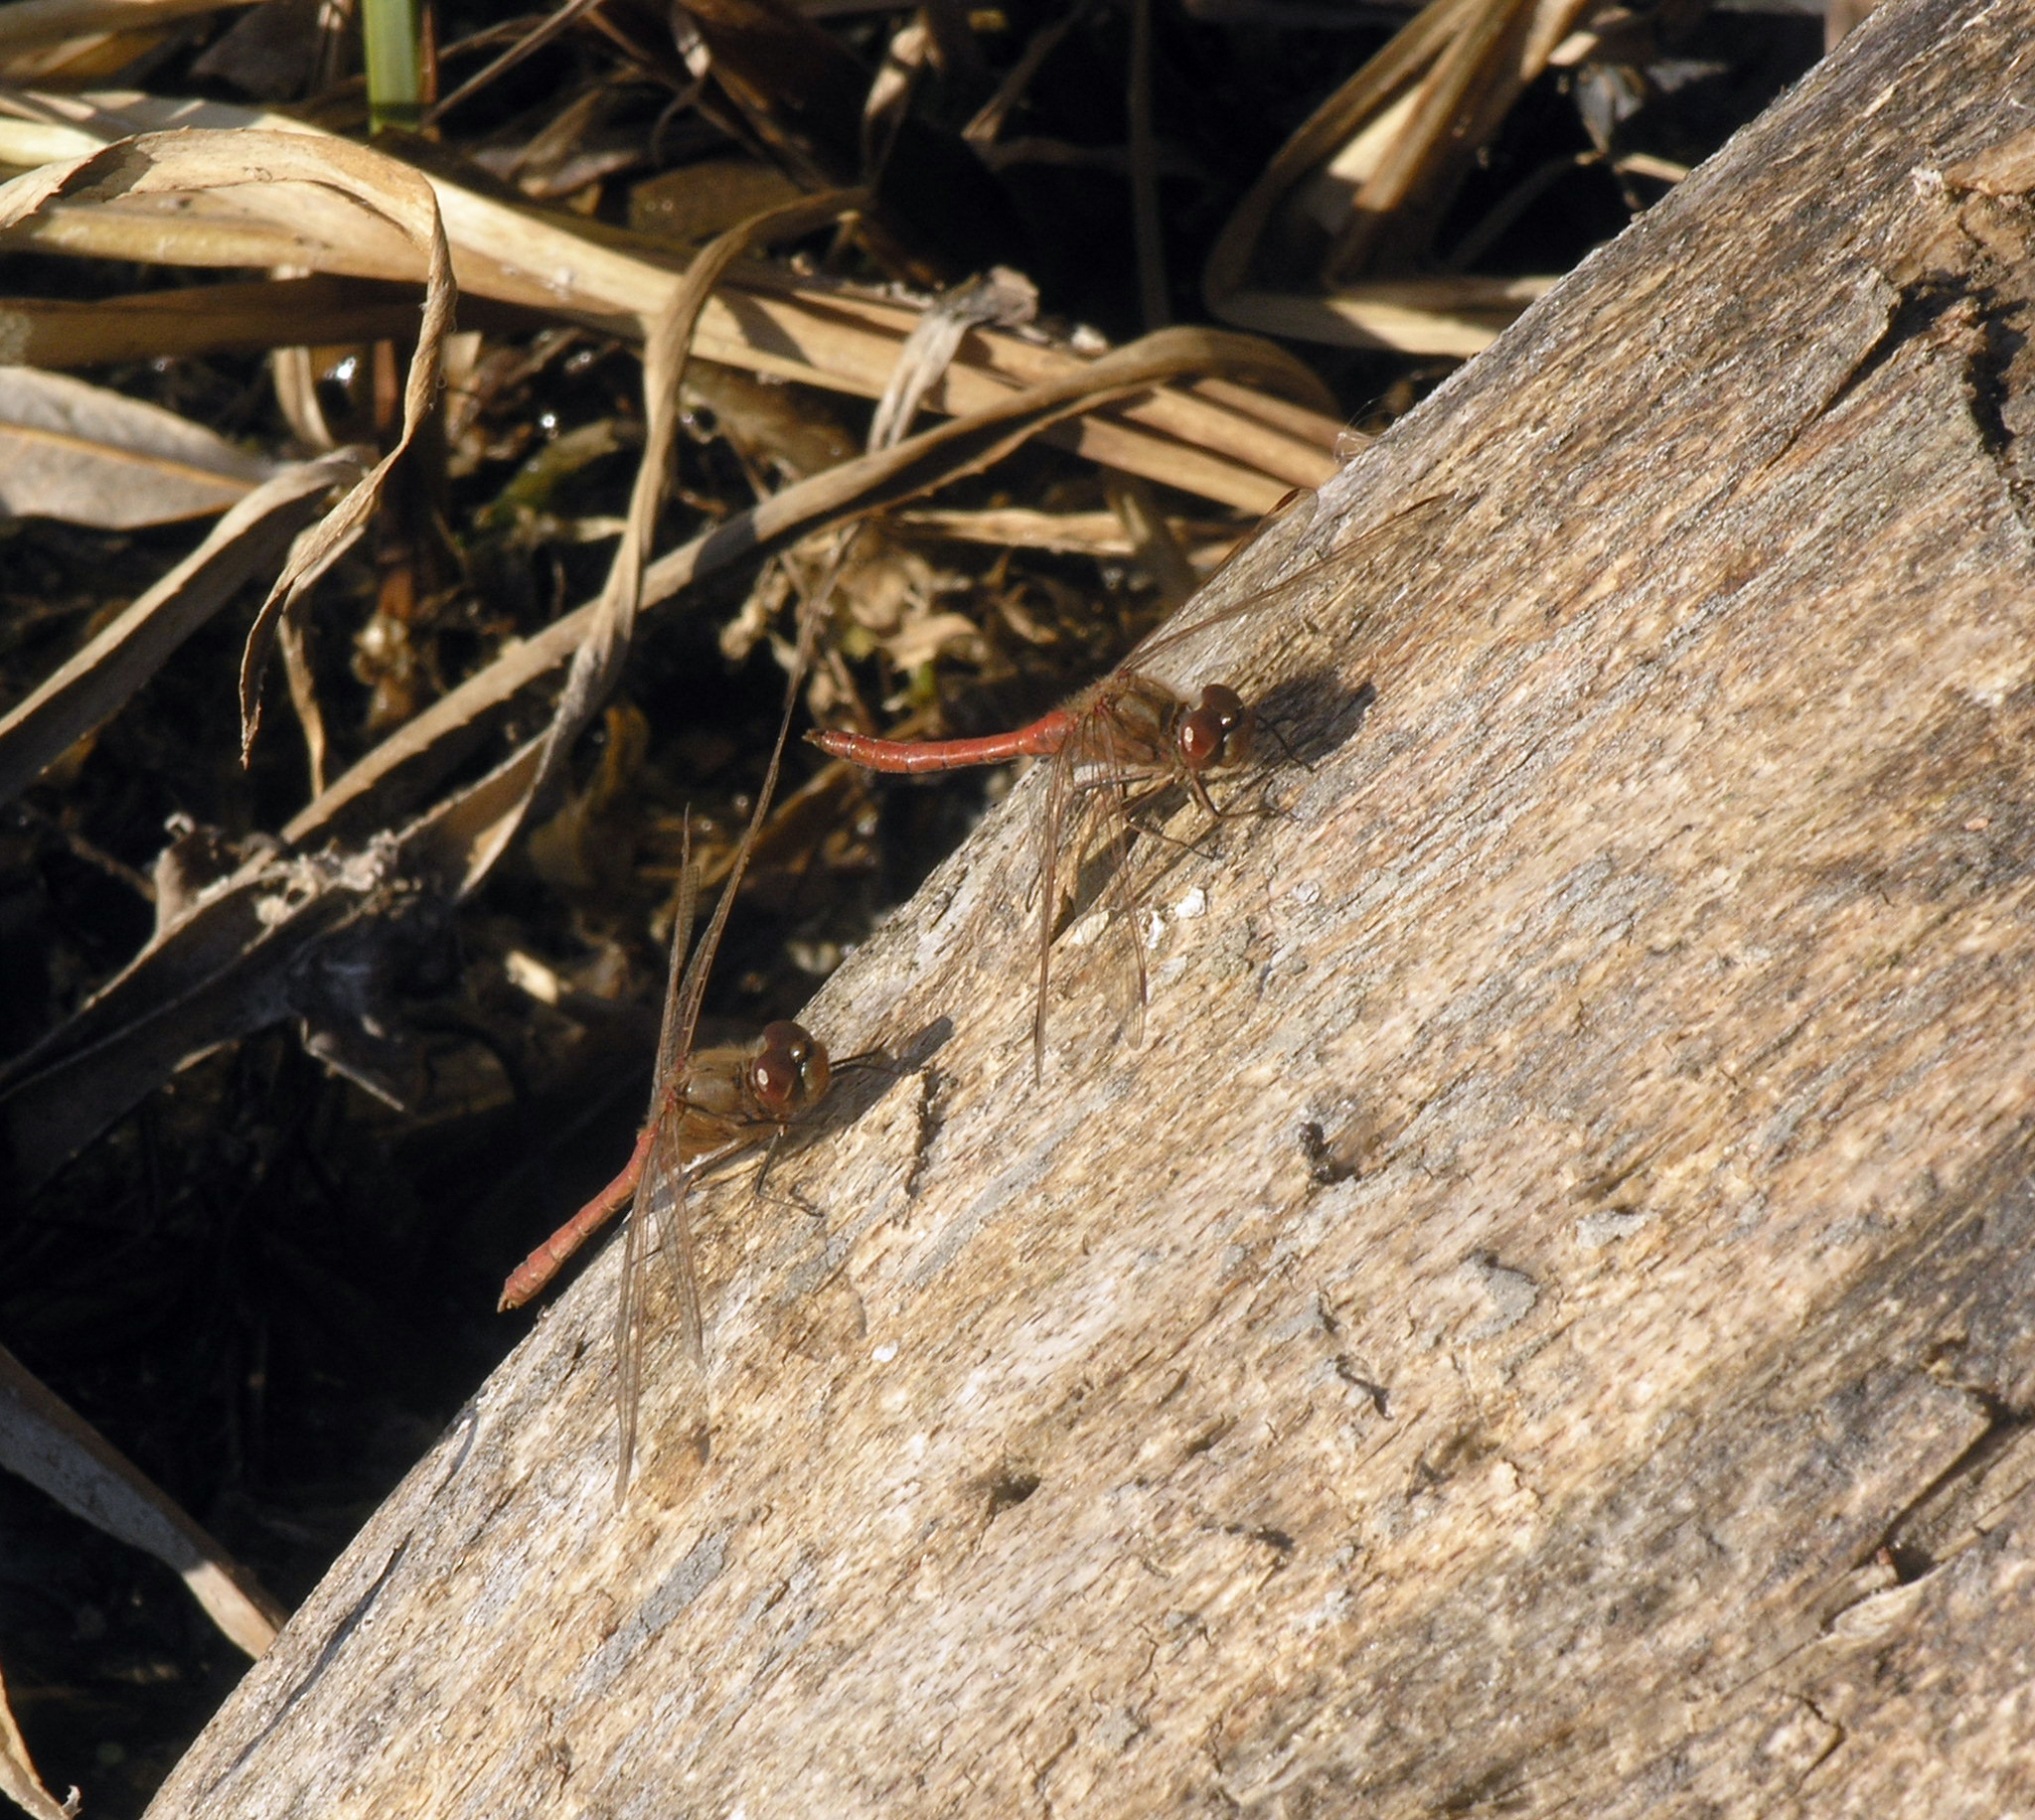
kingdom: Animalia
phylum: Arthropoda
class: Insecta
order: Odonata
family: Libellulidae
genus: Sympetrum
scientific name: Sympetrum vulgatum
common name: Vagrant darter
